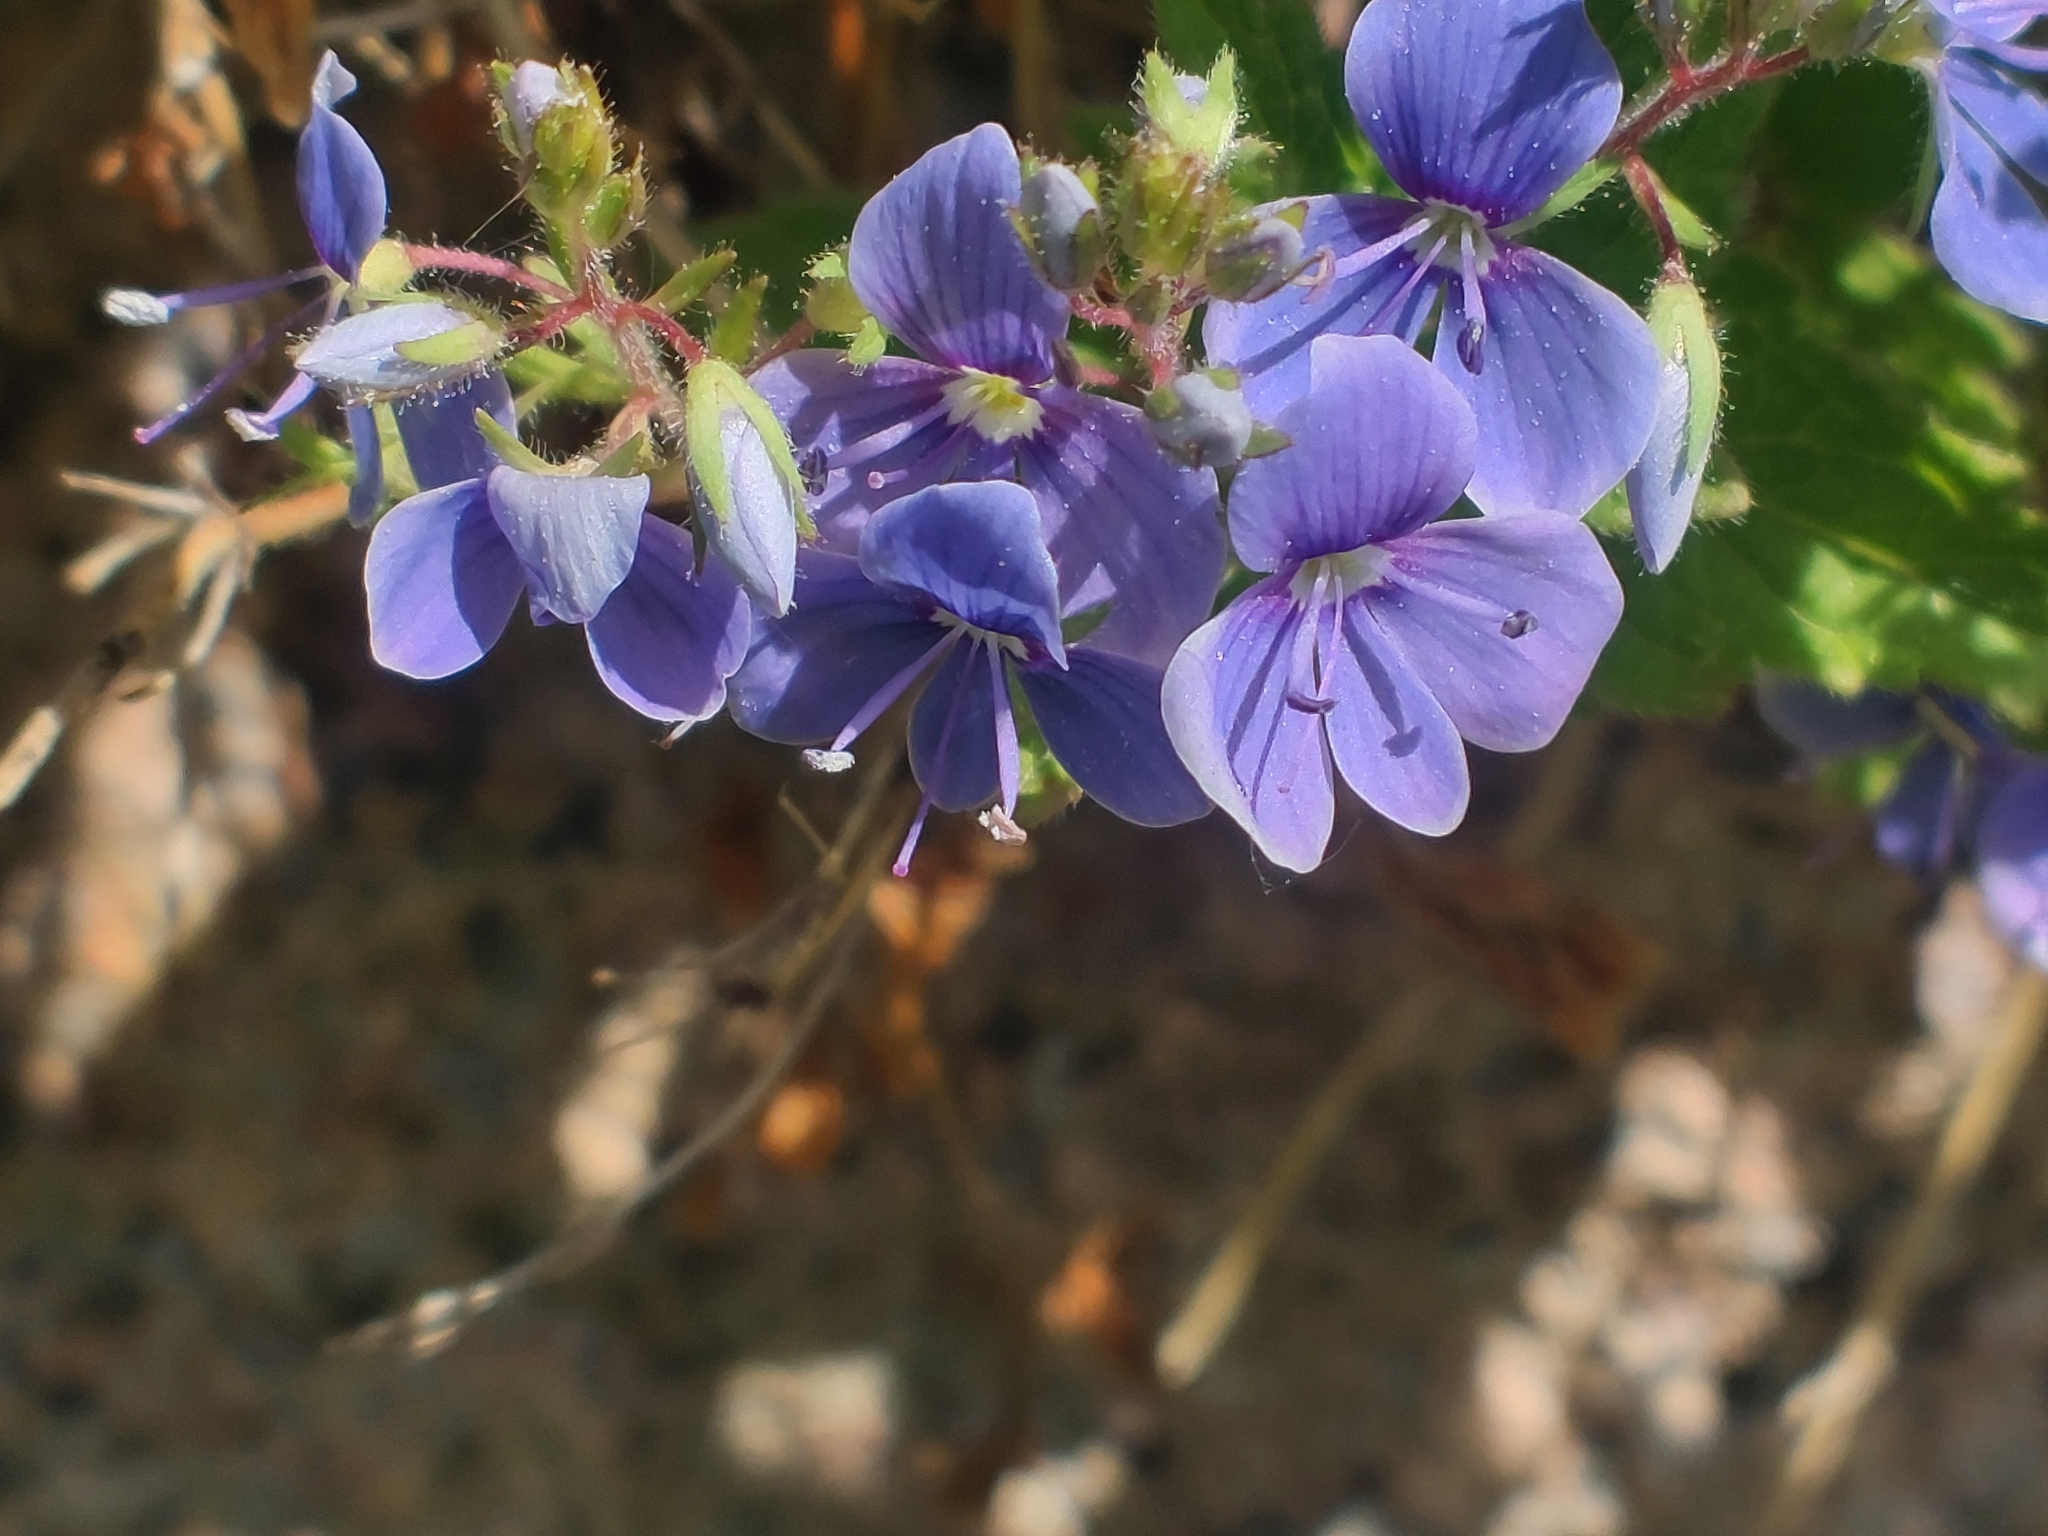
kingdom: Plantae
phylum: Tracheophyta
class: Magnoliopsida
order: Lamiales
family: Plantaginaceae
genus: Veronica
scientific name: Veronica chamaedrys
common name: Germander speedwell
